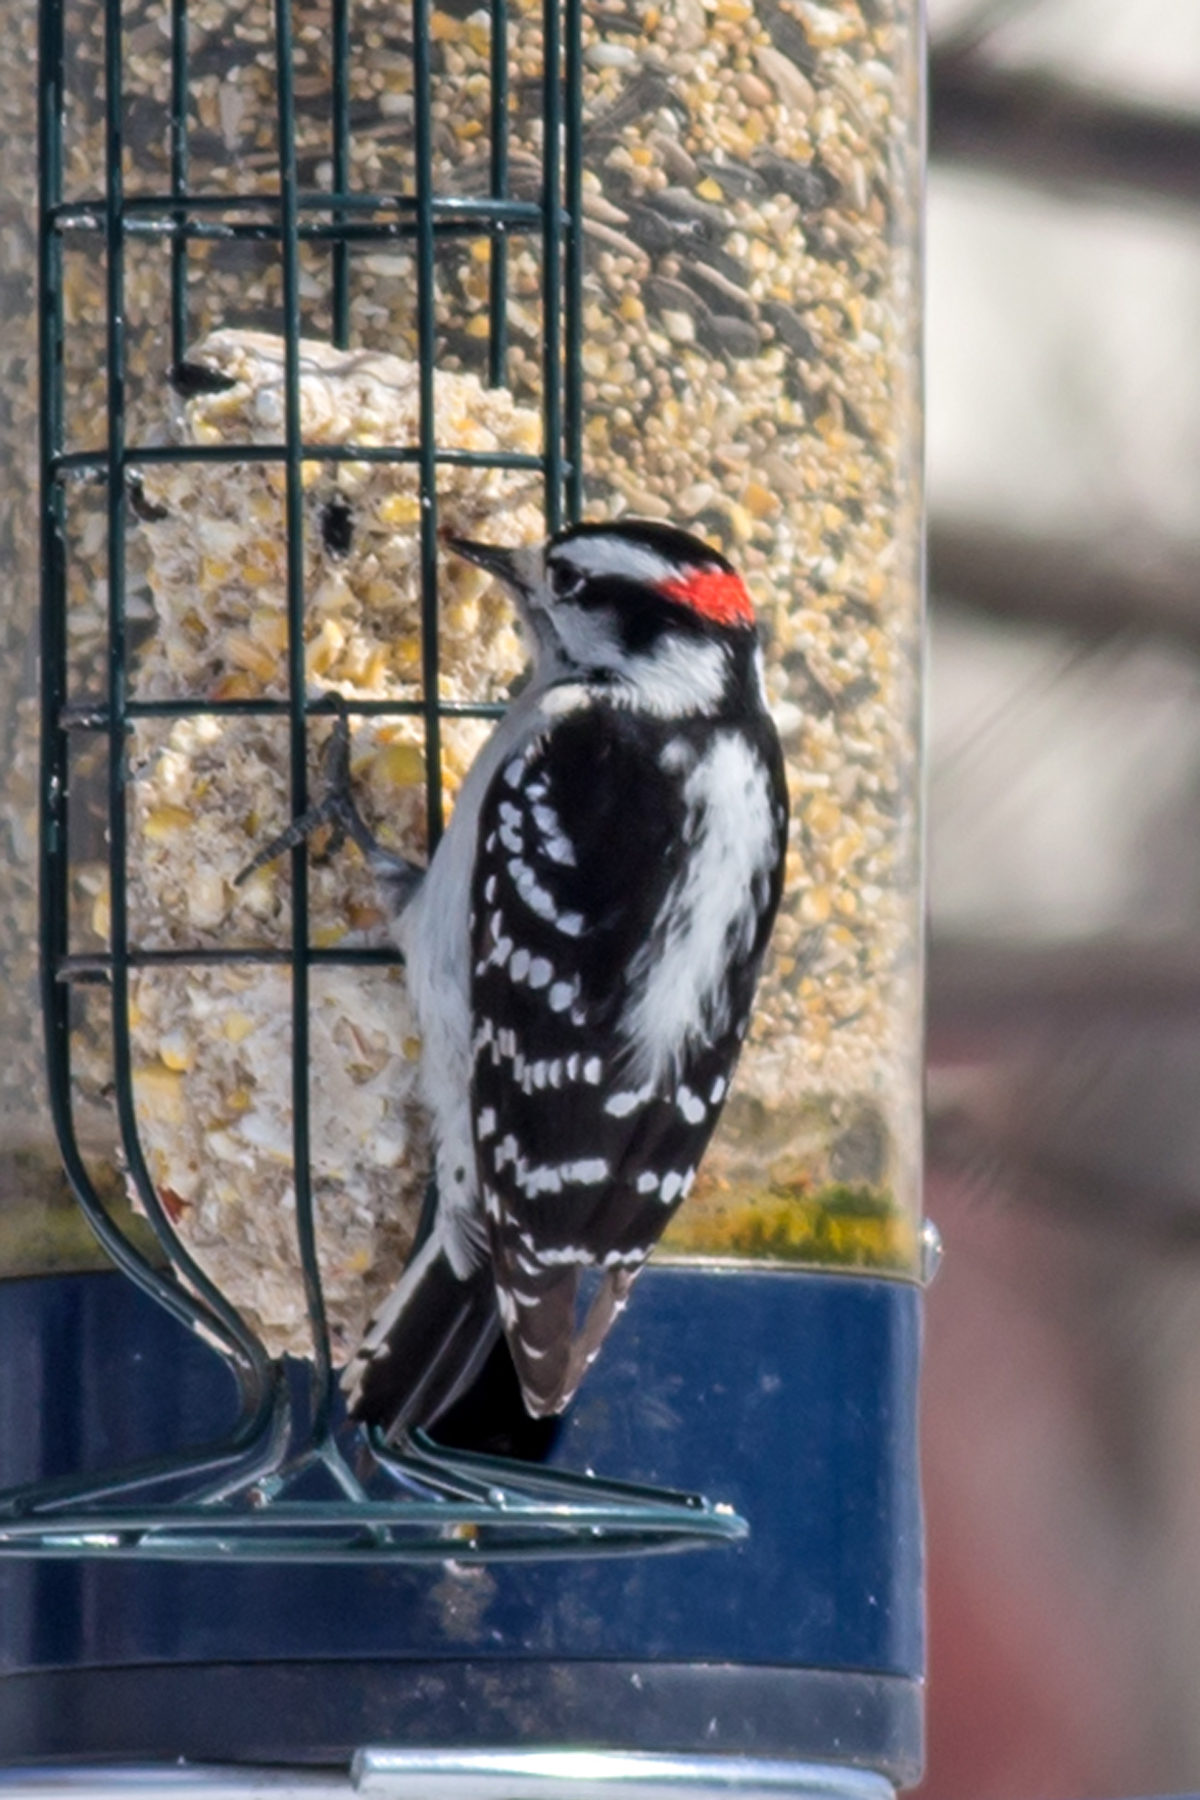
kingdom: Animalia
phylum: Chordata
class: Aves
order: Piciformes
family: Picidae
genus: Dryobates
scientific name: Dryobates pubescens
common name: Downy woodpecker
